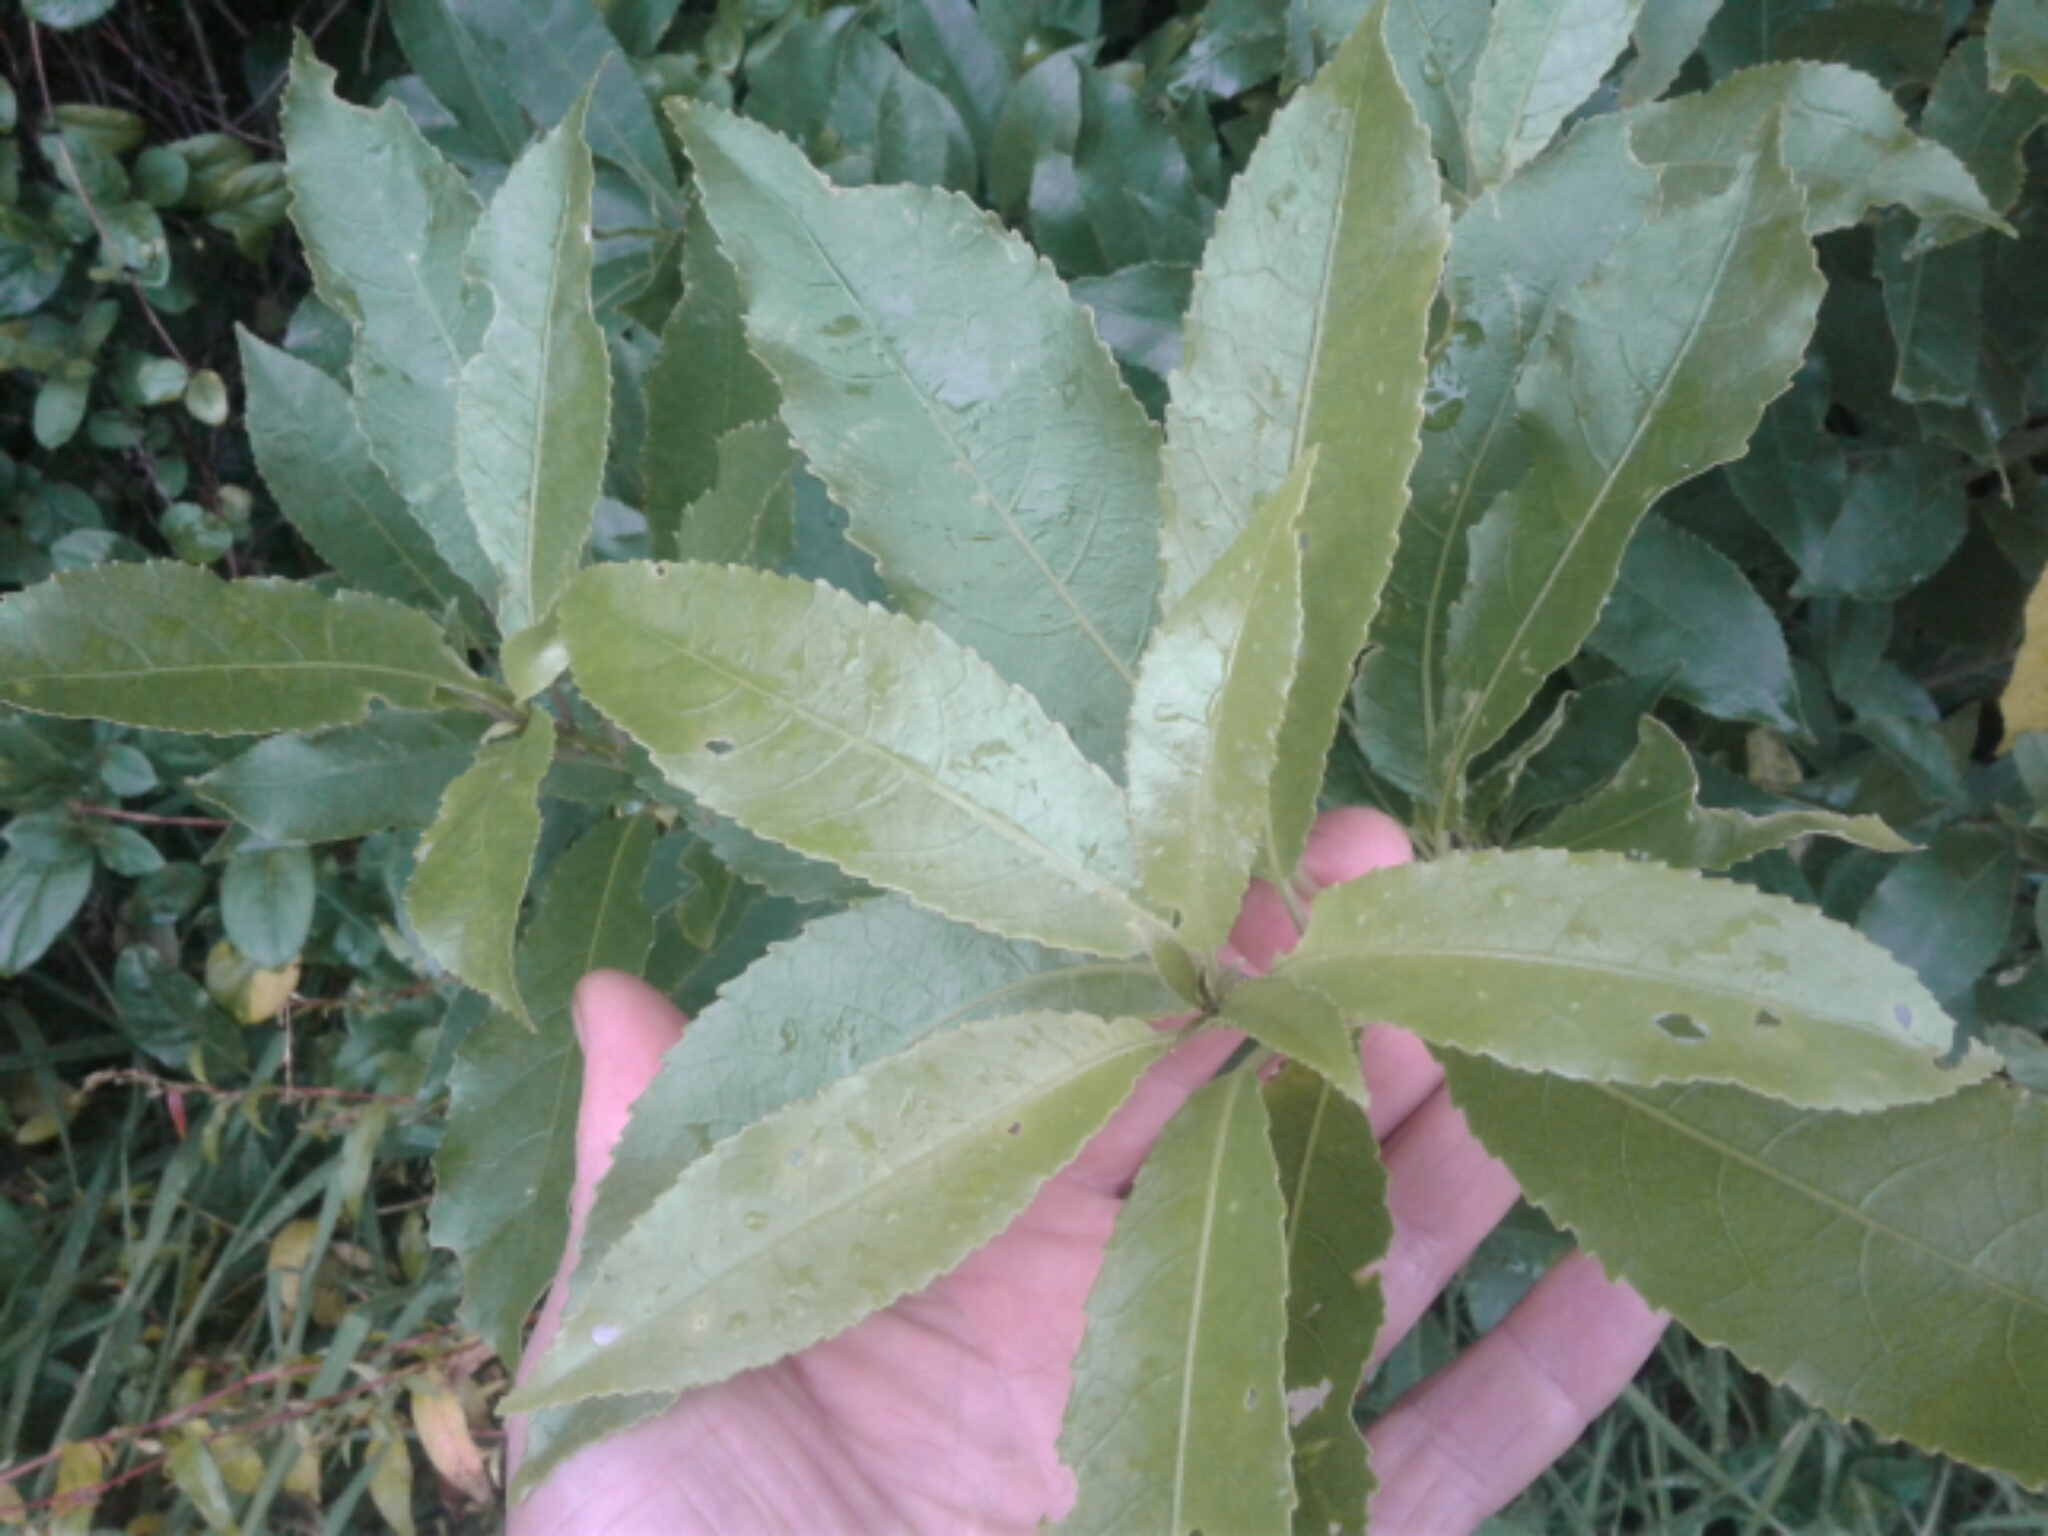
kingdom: Plantae
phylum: Tracheophyta
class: Magnoliopsida
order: Malpighiales
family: Violaceae
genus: Melicytus
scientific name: Melicytus ramiflorus
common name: Mahoe
